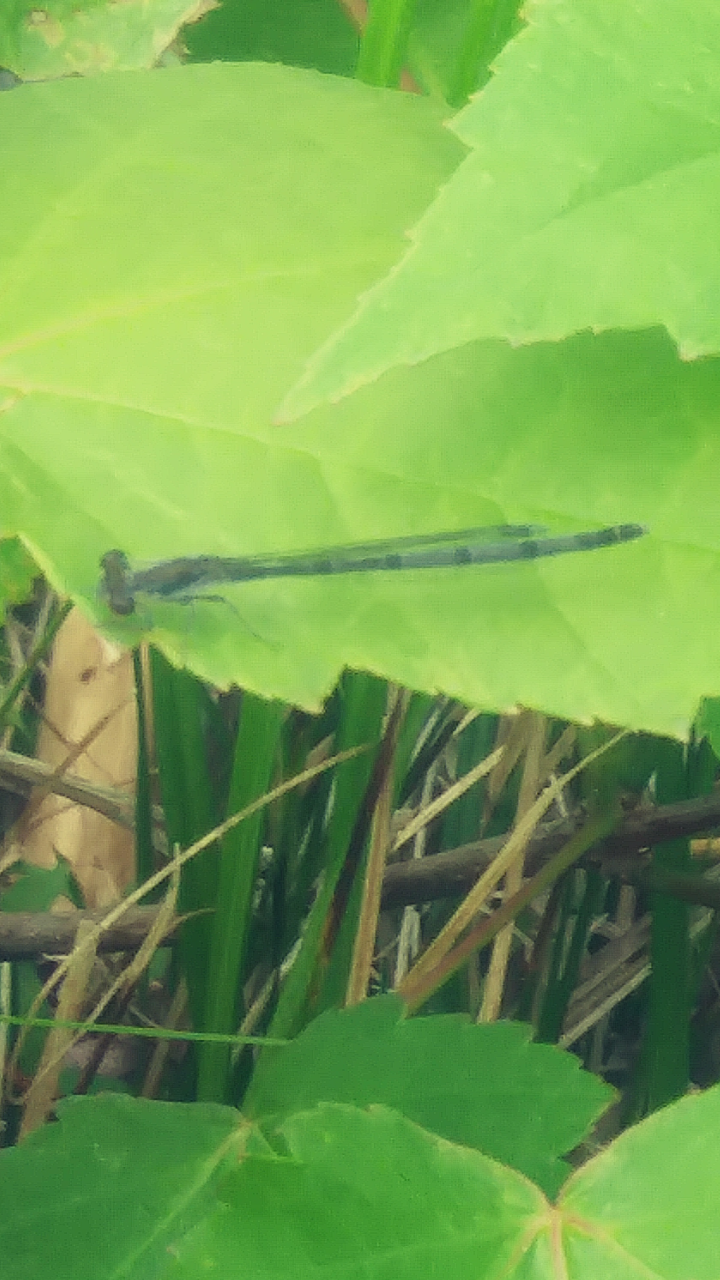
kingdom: Animalia
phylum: Arthropoda
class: Insecta
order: Odonata
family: Coenagrionidae
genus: Ischnura
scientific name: Ischnura posita
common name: Fragile forktail
